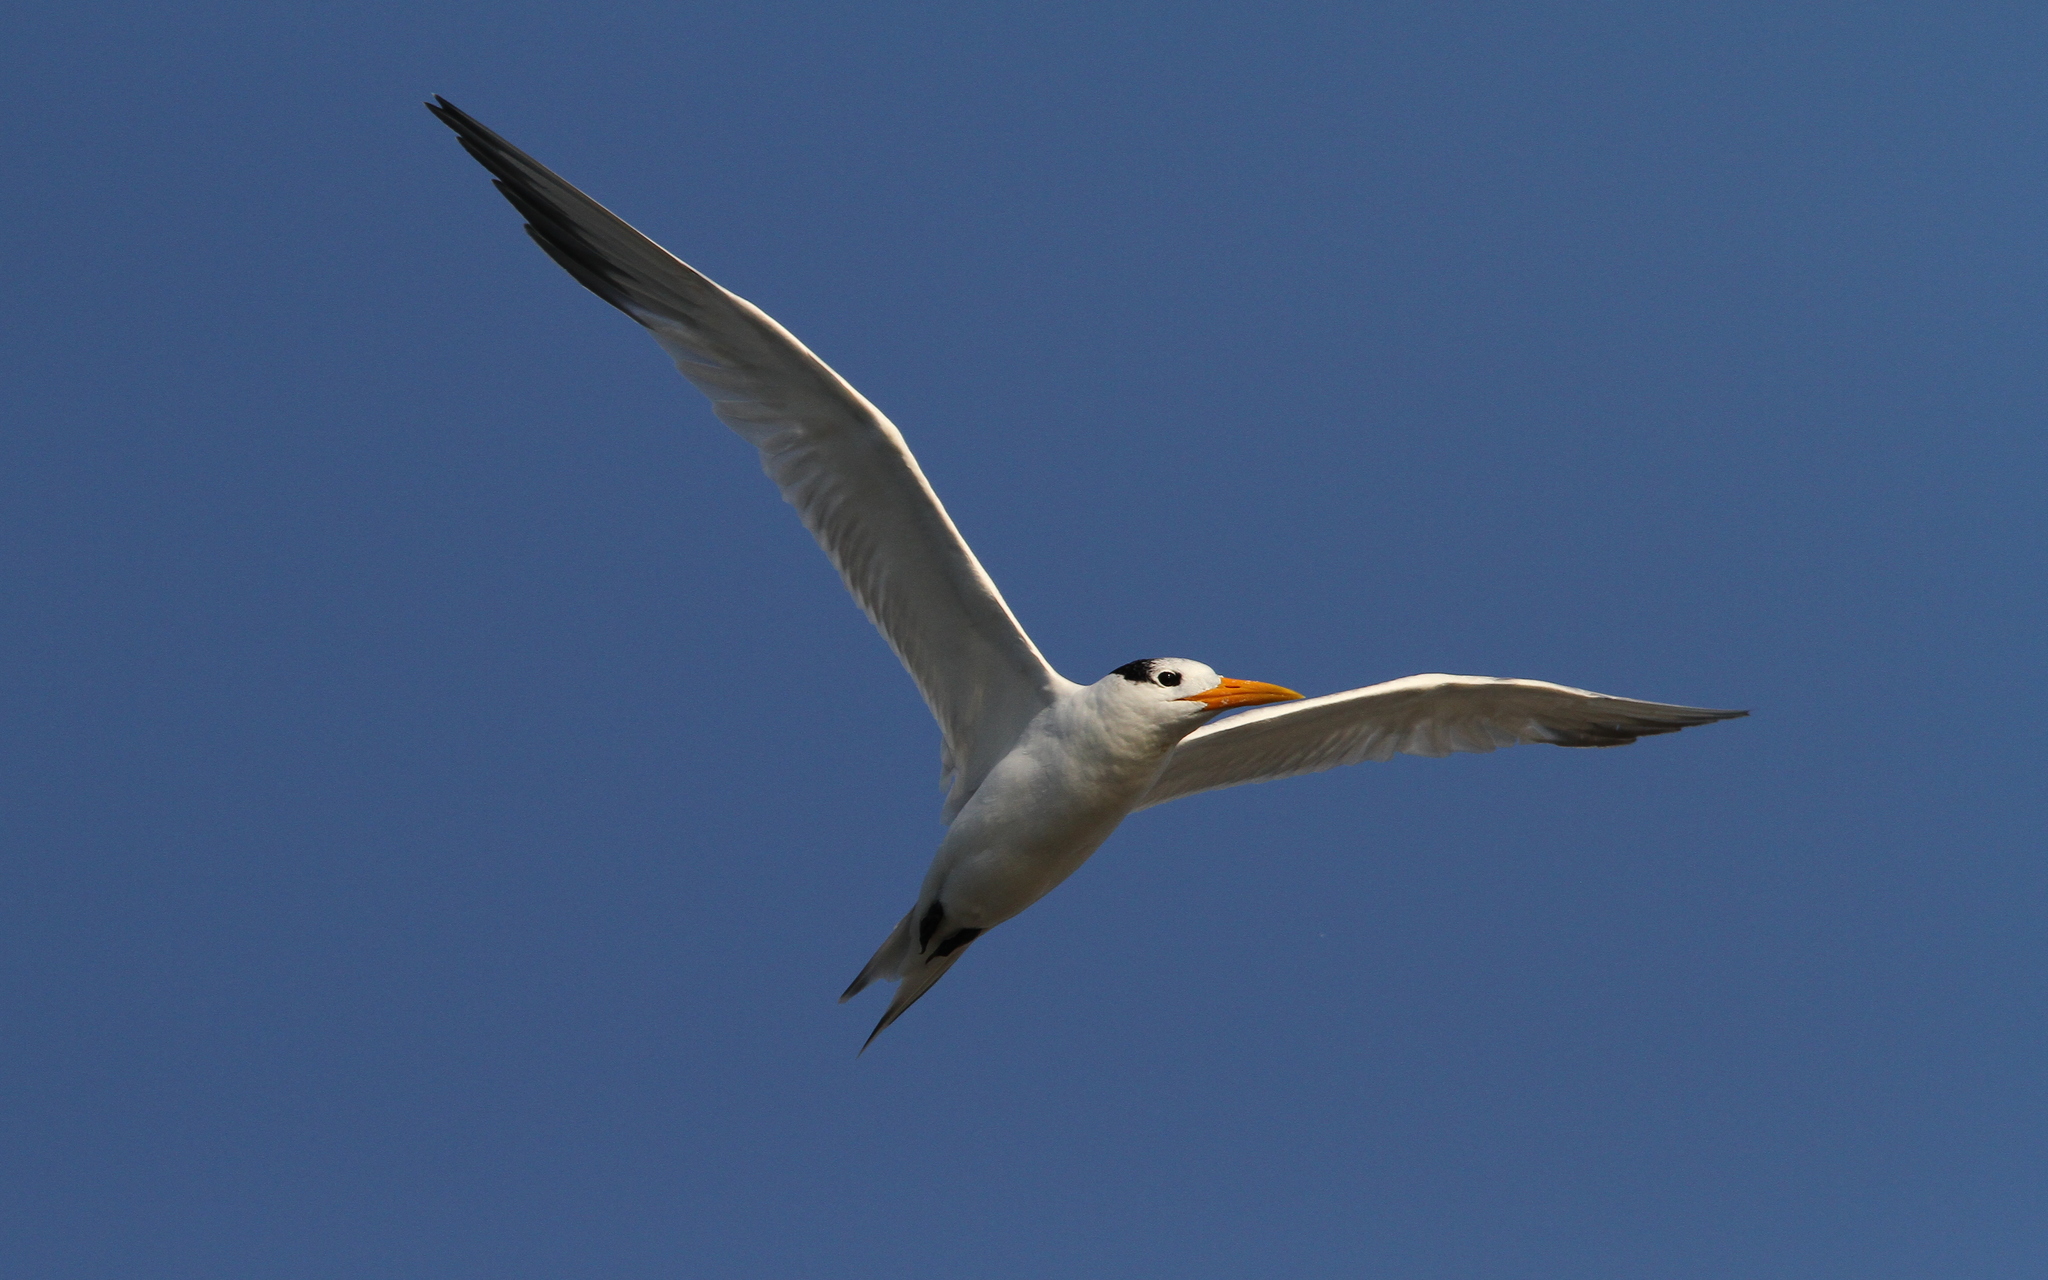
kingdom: Animalia
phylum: Chordata
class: Aves
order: Charadriiformes
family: Laridae
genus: Thalasseus
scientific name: Thalasseus albididorsalis
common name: West african crested tern
